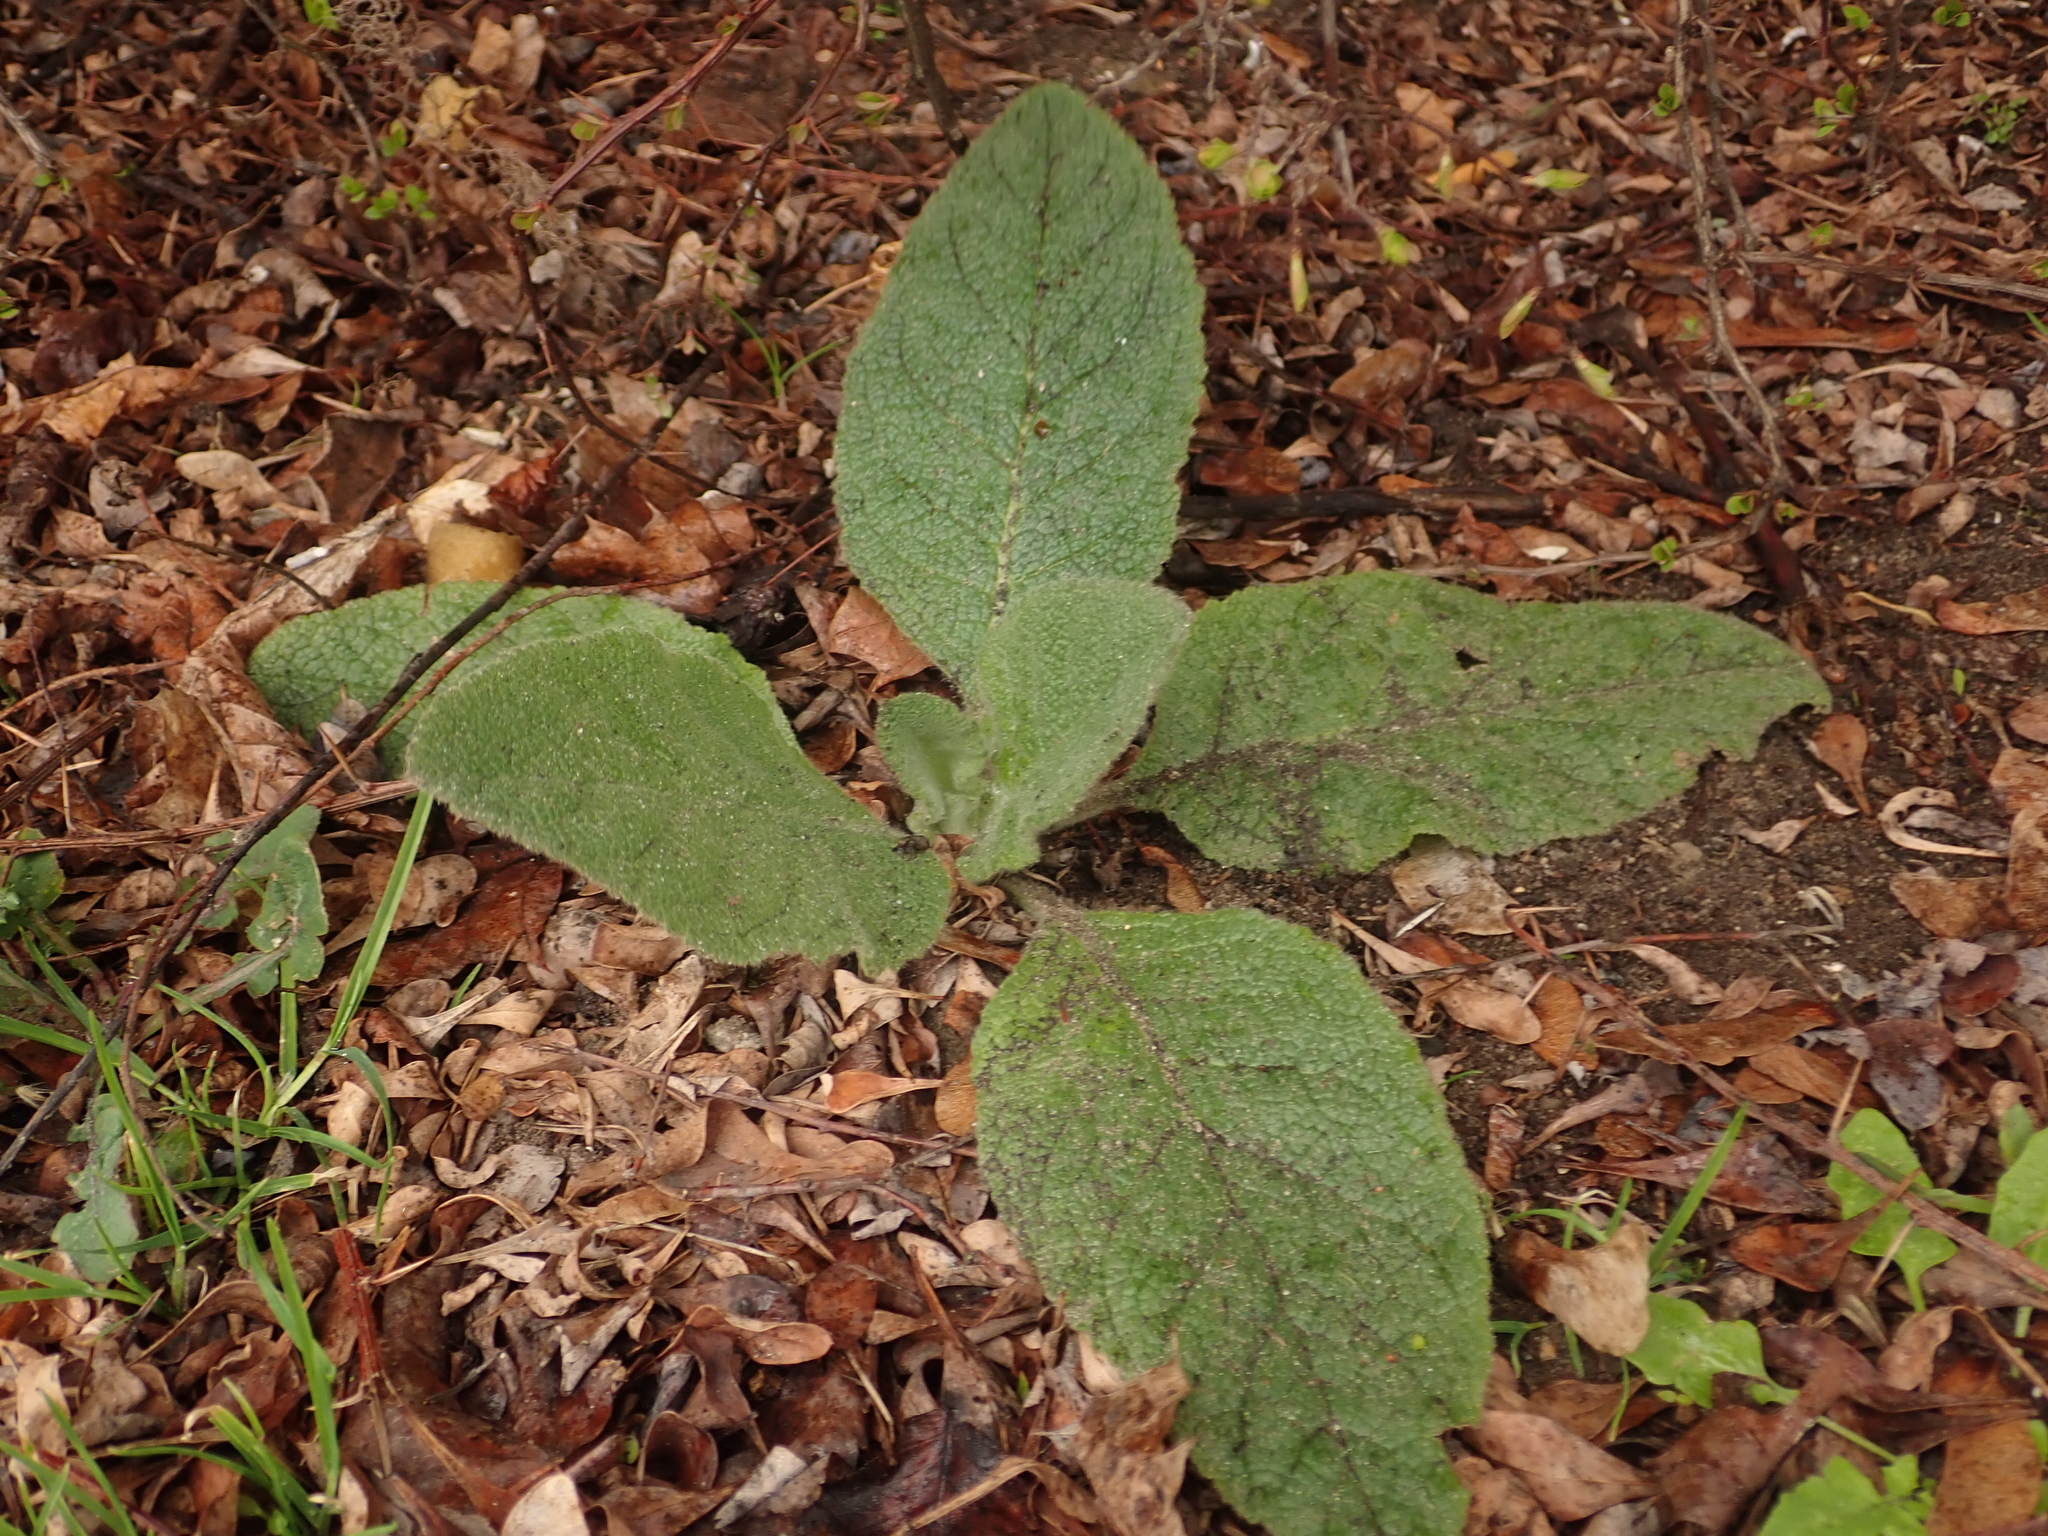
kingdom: Plantae
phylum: Tracheophyta
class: Magnoliopsida
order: Lamiales
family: Scrophulariaceae
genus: Verbascum
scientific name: Verbascum thapsus
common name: Common mullein
